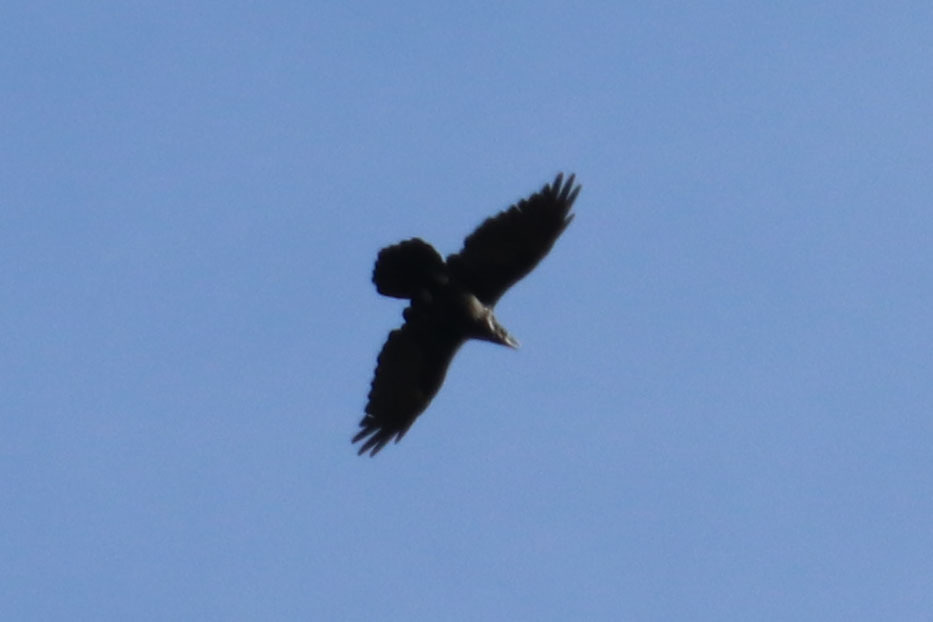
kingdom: Animalia
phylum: Chordata
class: Aves
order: Passeriformes
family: Corvidae
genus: Corvus
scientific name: Corvus corax
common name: Common raven
